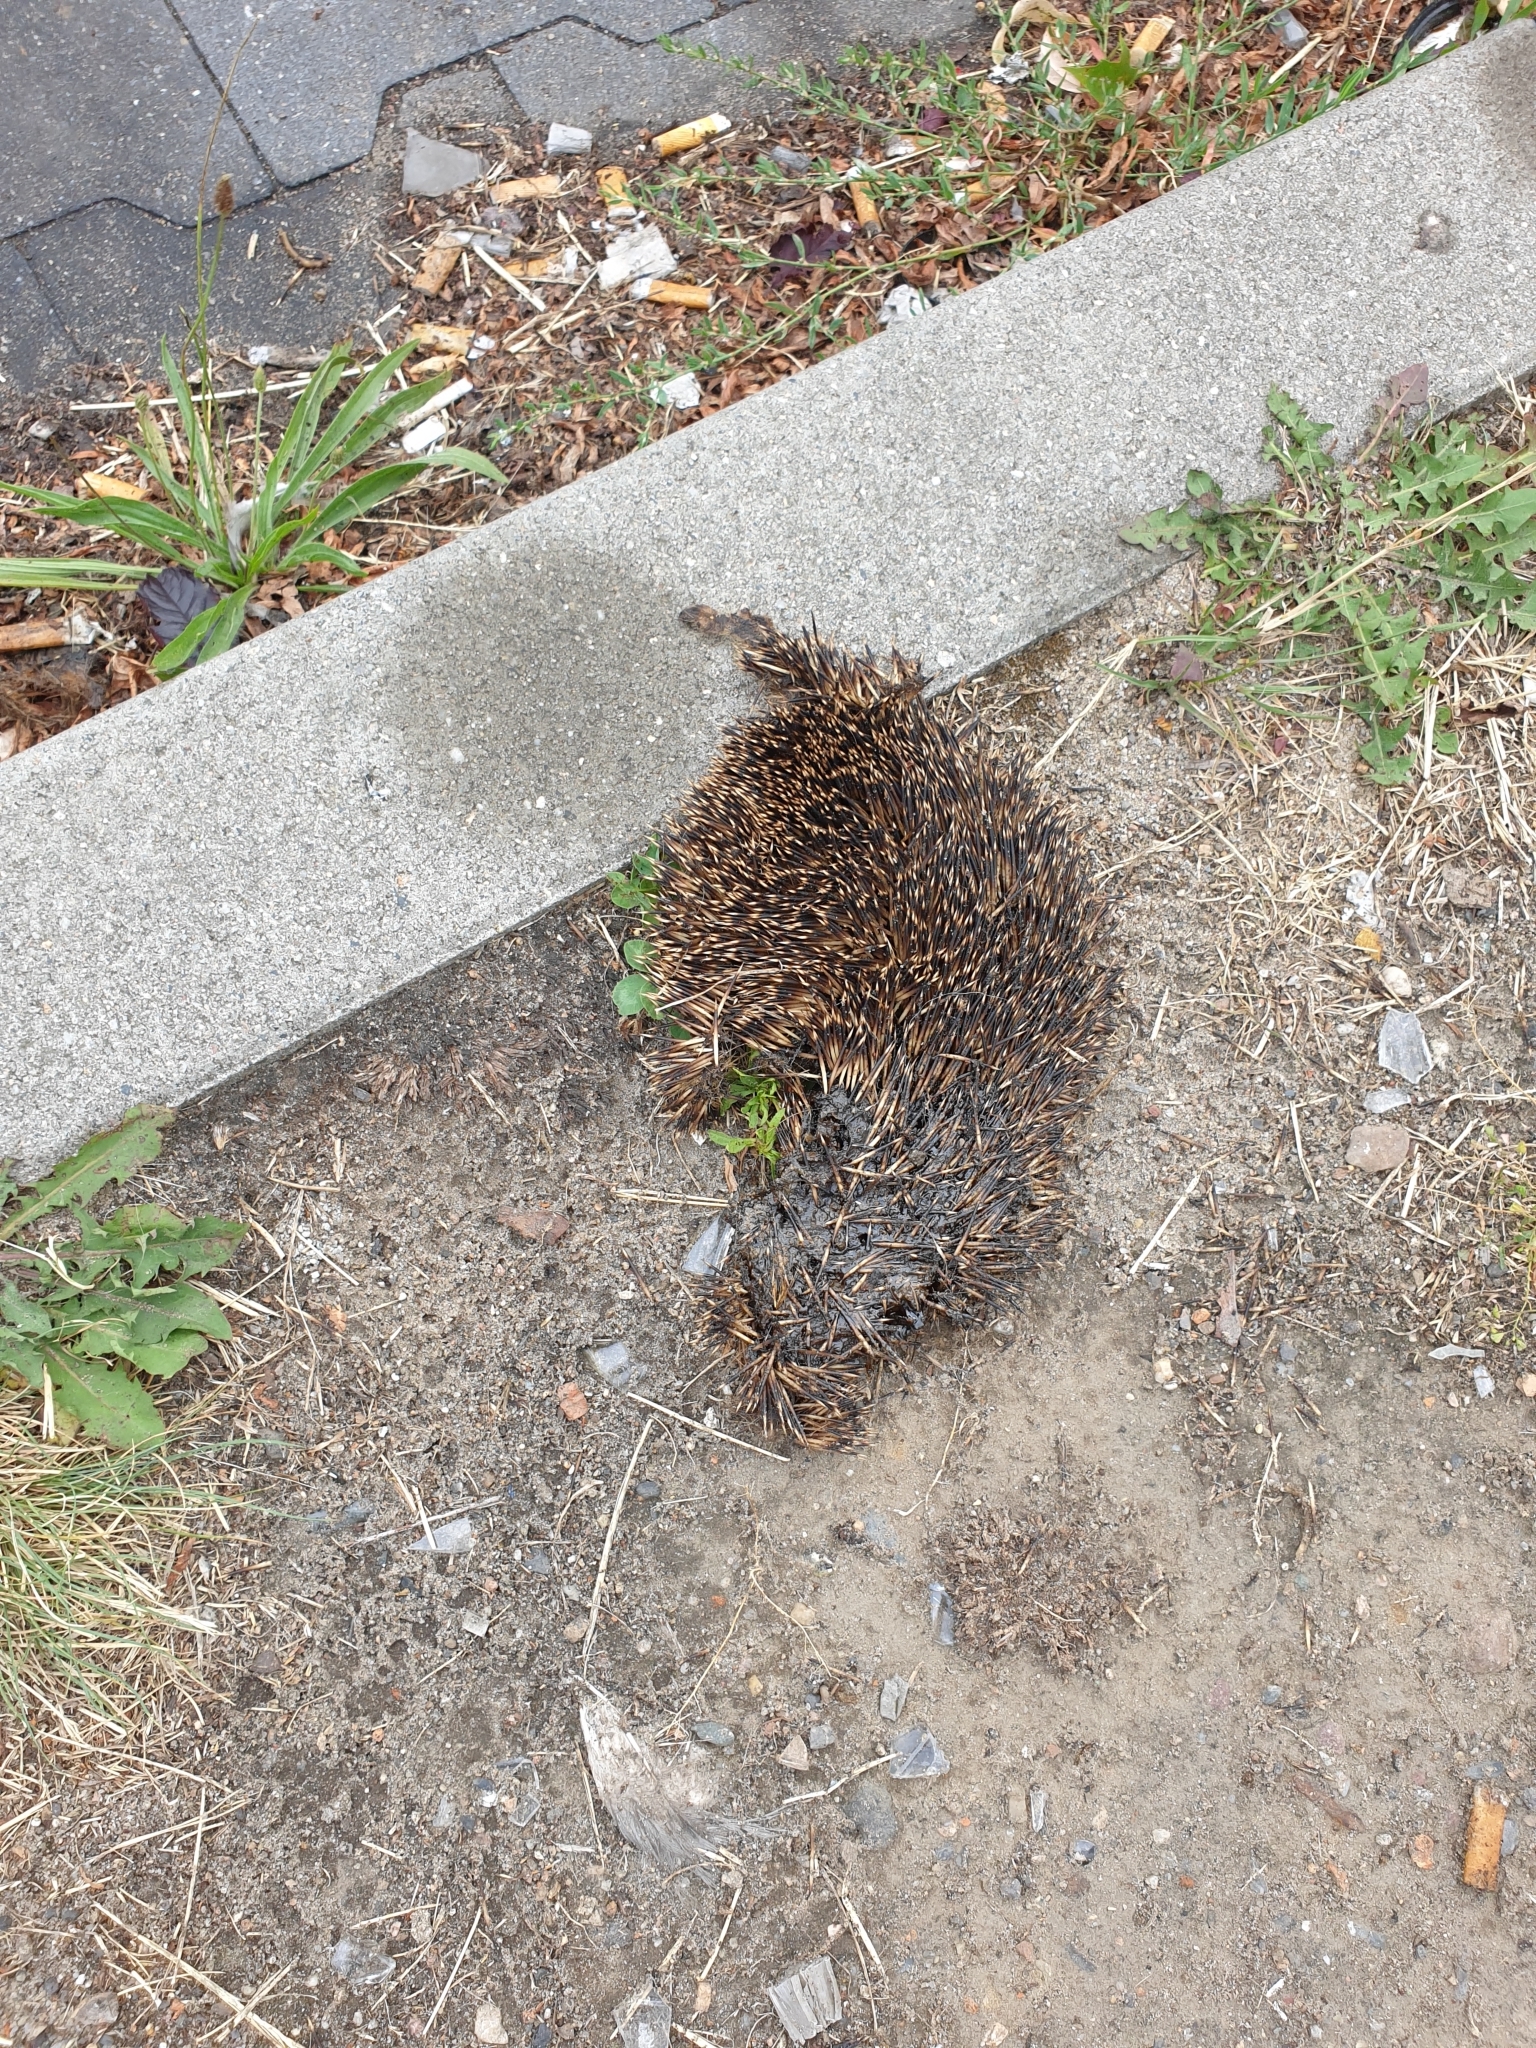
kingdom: Animalia
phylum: Chordata
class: Mammalia
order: Erinaceomorpha
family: Erinaceidae
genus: Erinaceus
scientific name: Erinaceus europaeus
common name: West european hedgehog
